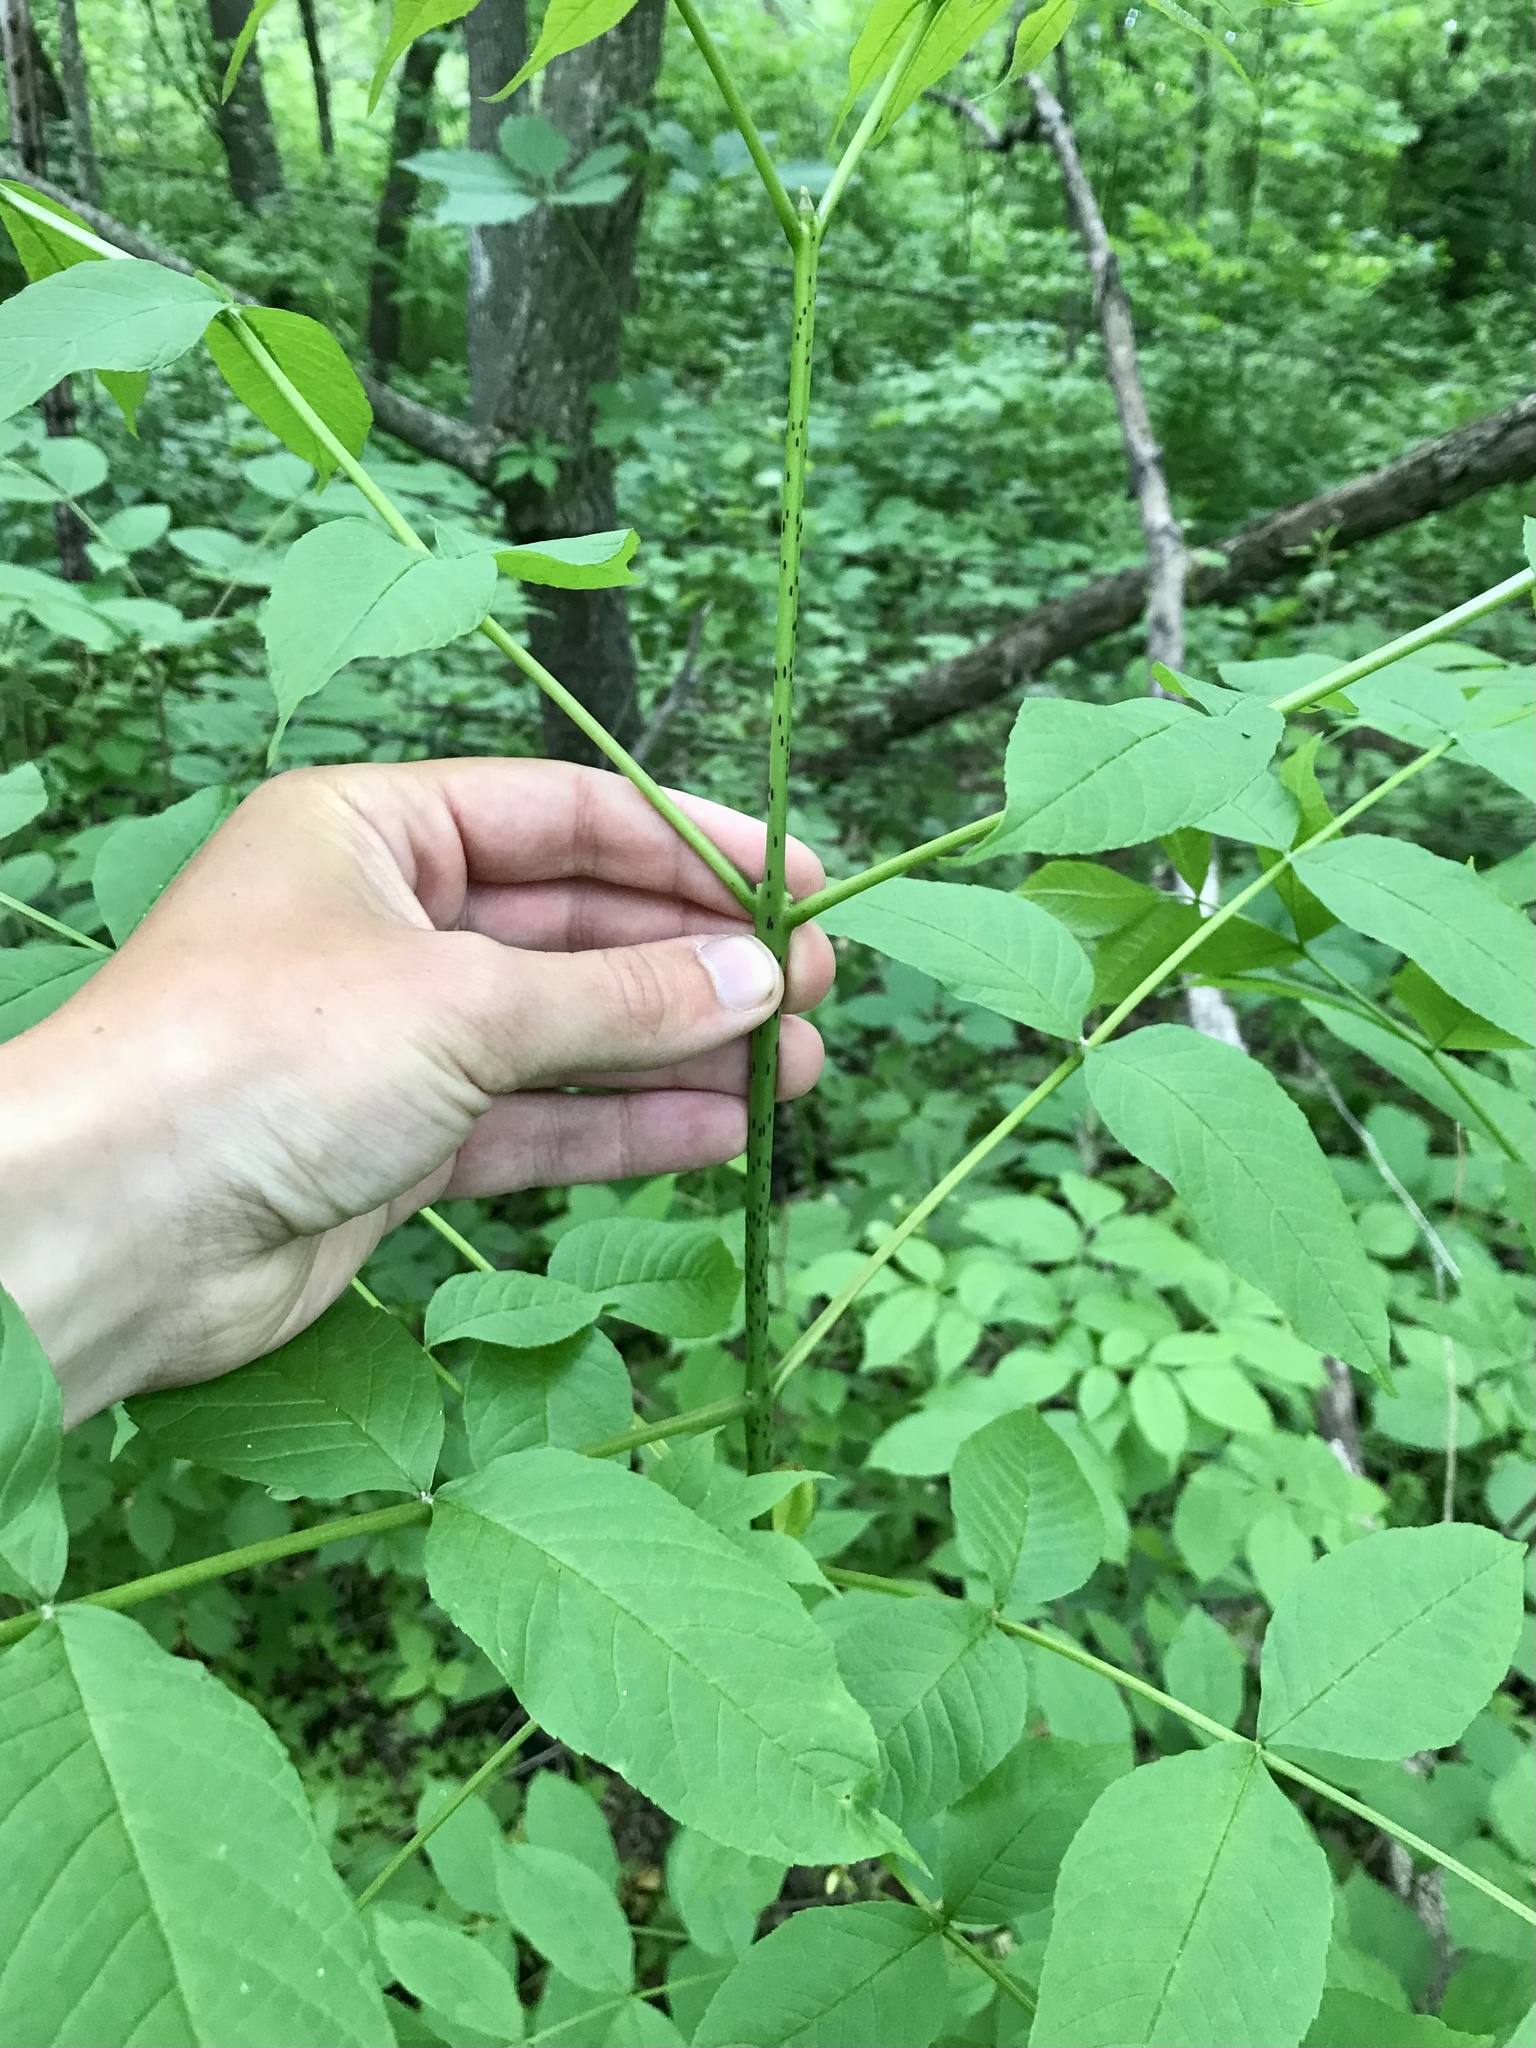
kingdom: Plantae
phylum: Tracheophyta
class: Magnoliopsida
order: Lamiales
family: Oleaceae
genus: Fraxinus
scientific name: Fraxinus nigra
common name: Black ash
